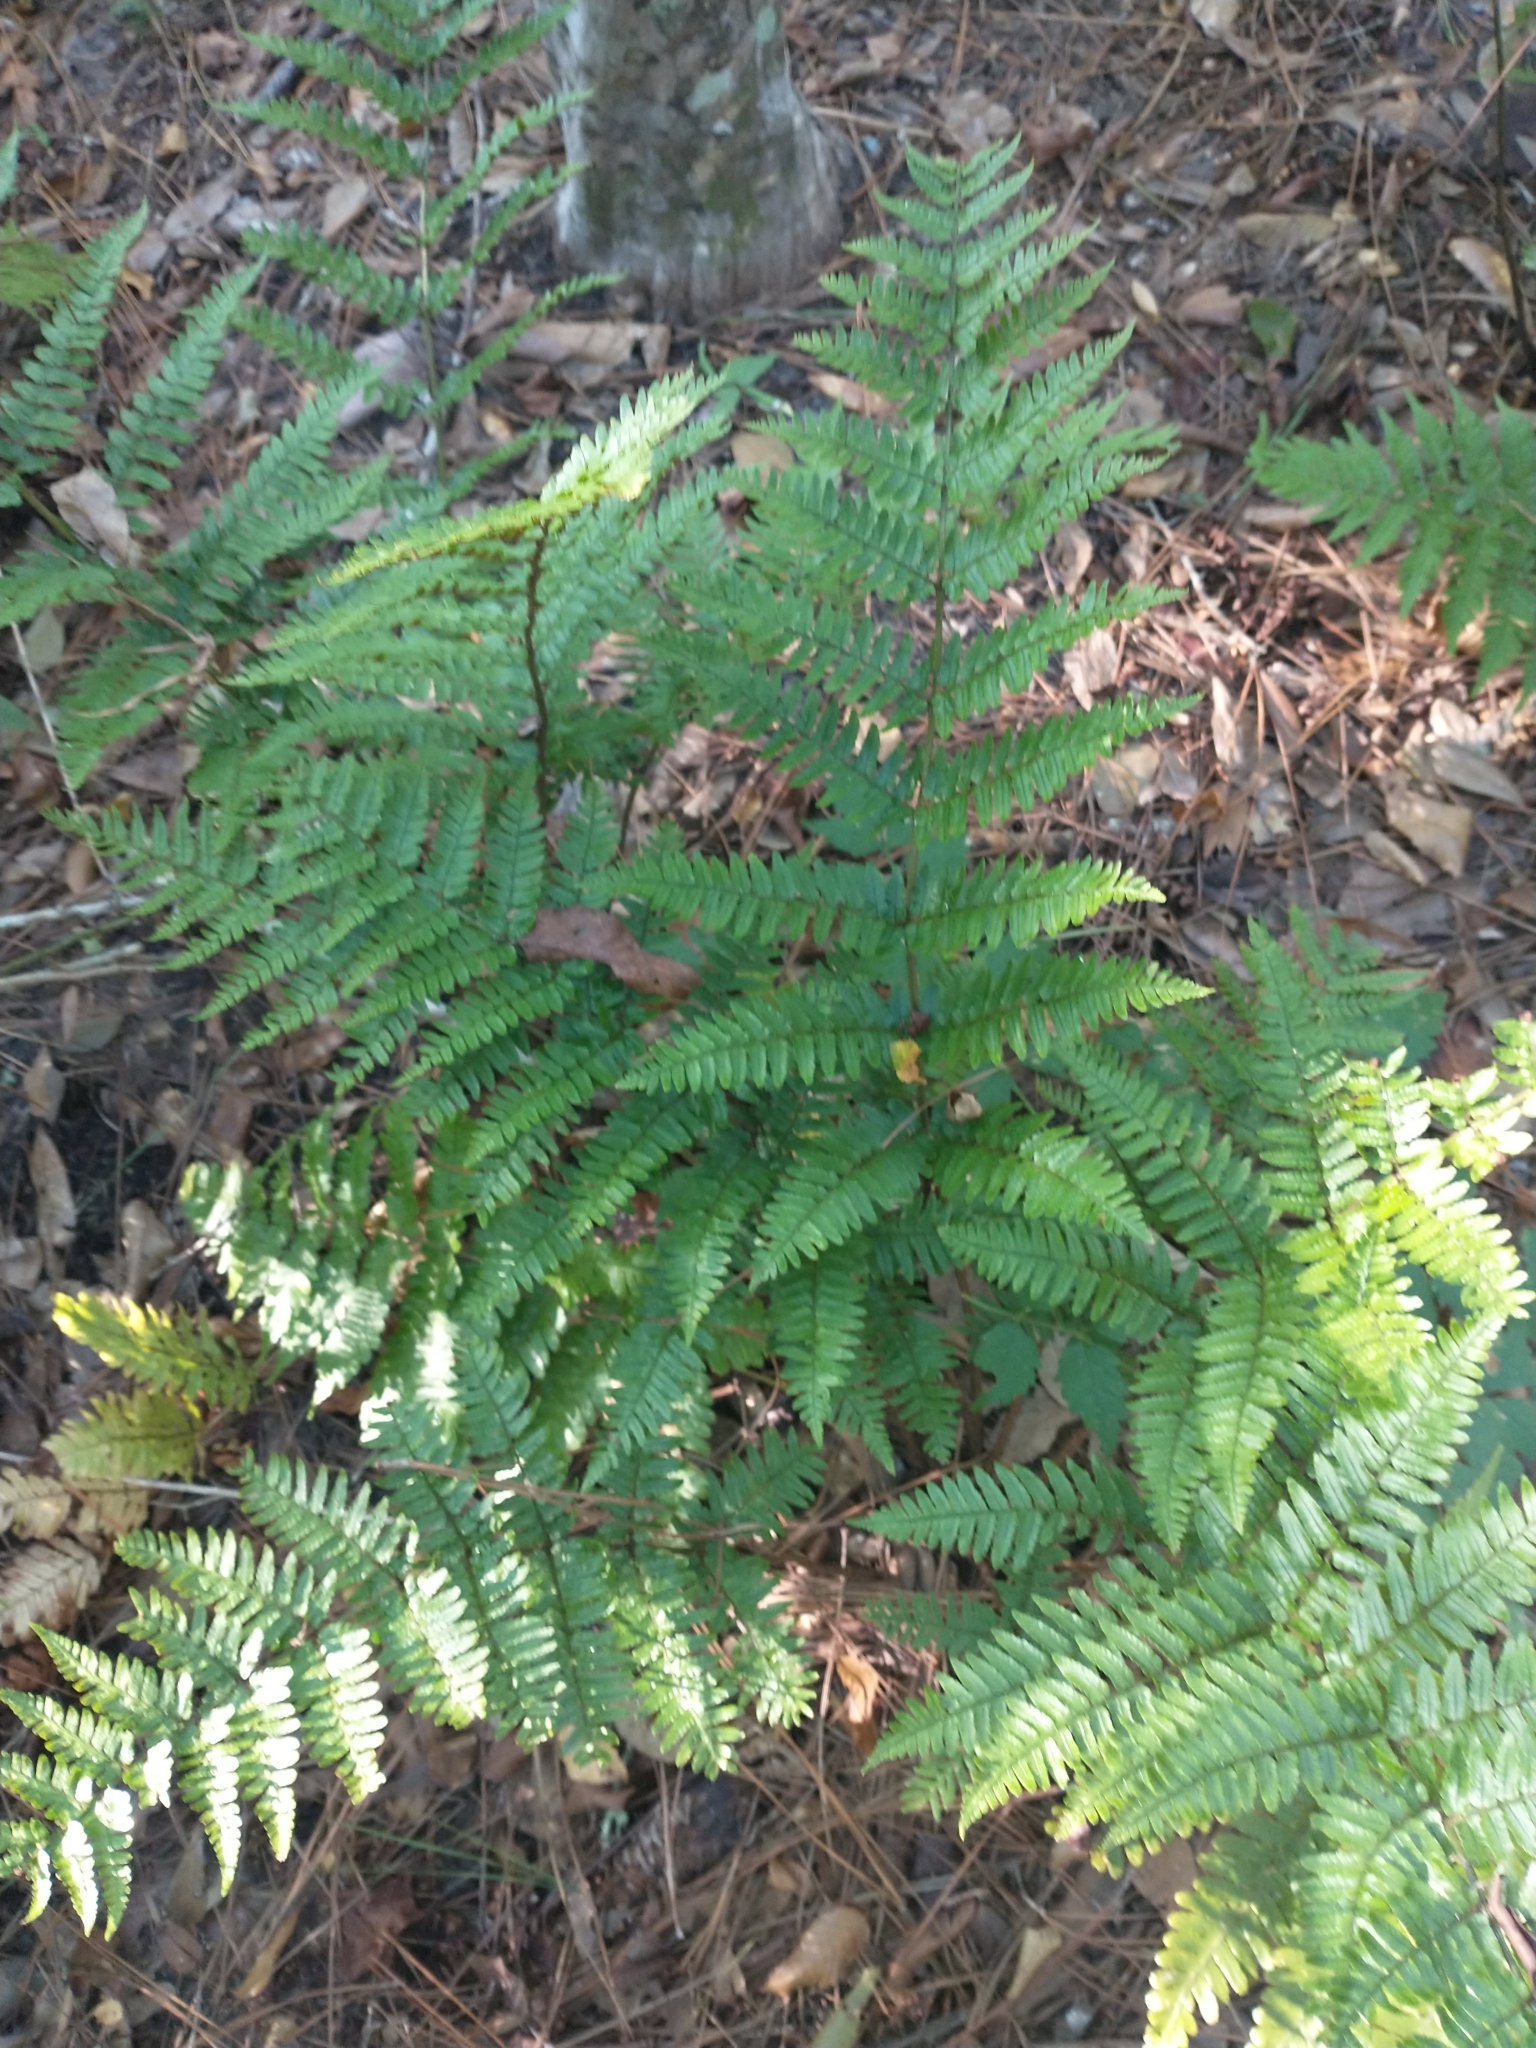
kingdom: Plantae
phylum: Tracheophyta
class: Polypodiopsida
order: Polypodiales
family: Dryopteridaceae
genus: Dryopteris
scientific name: Dryopteris erythrosora
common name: Autumn fern
